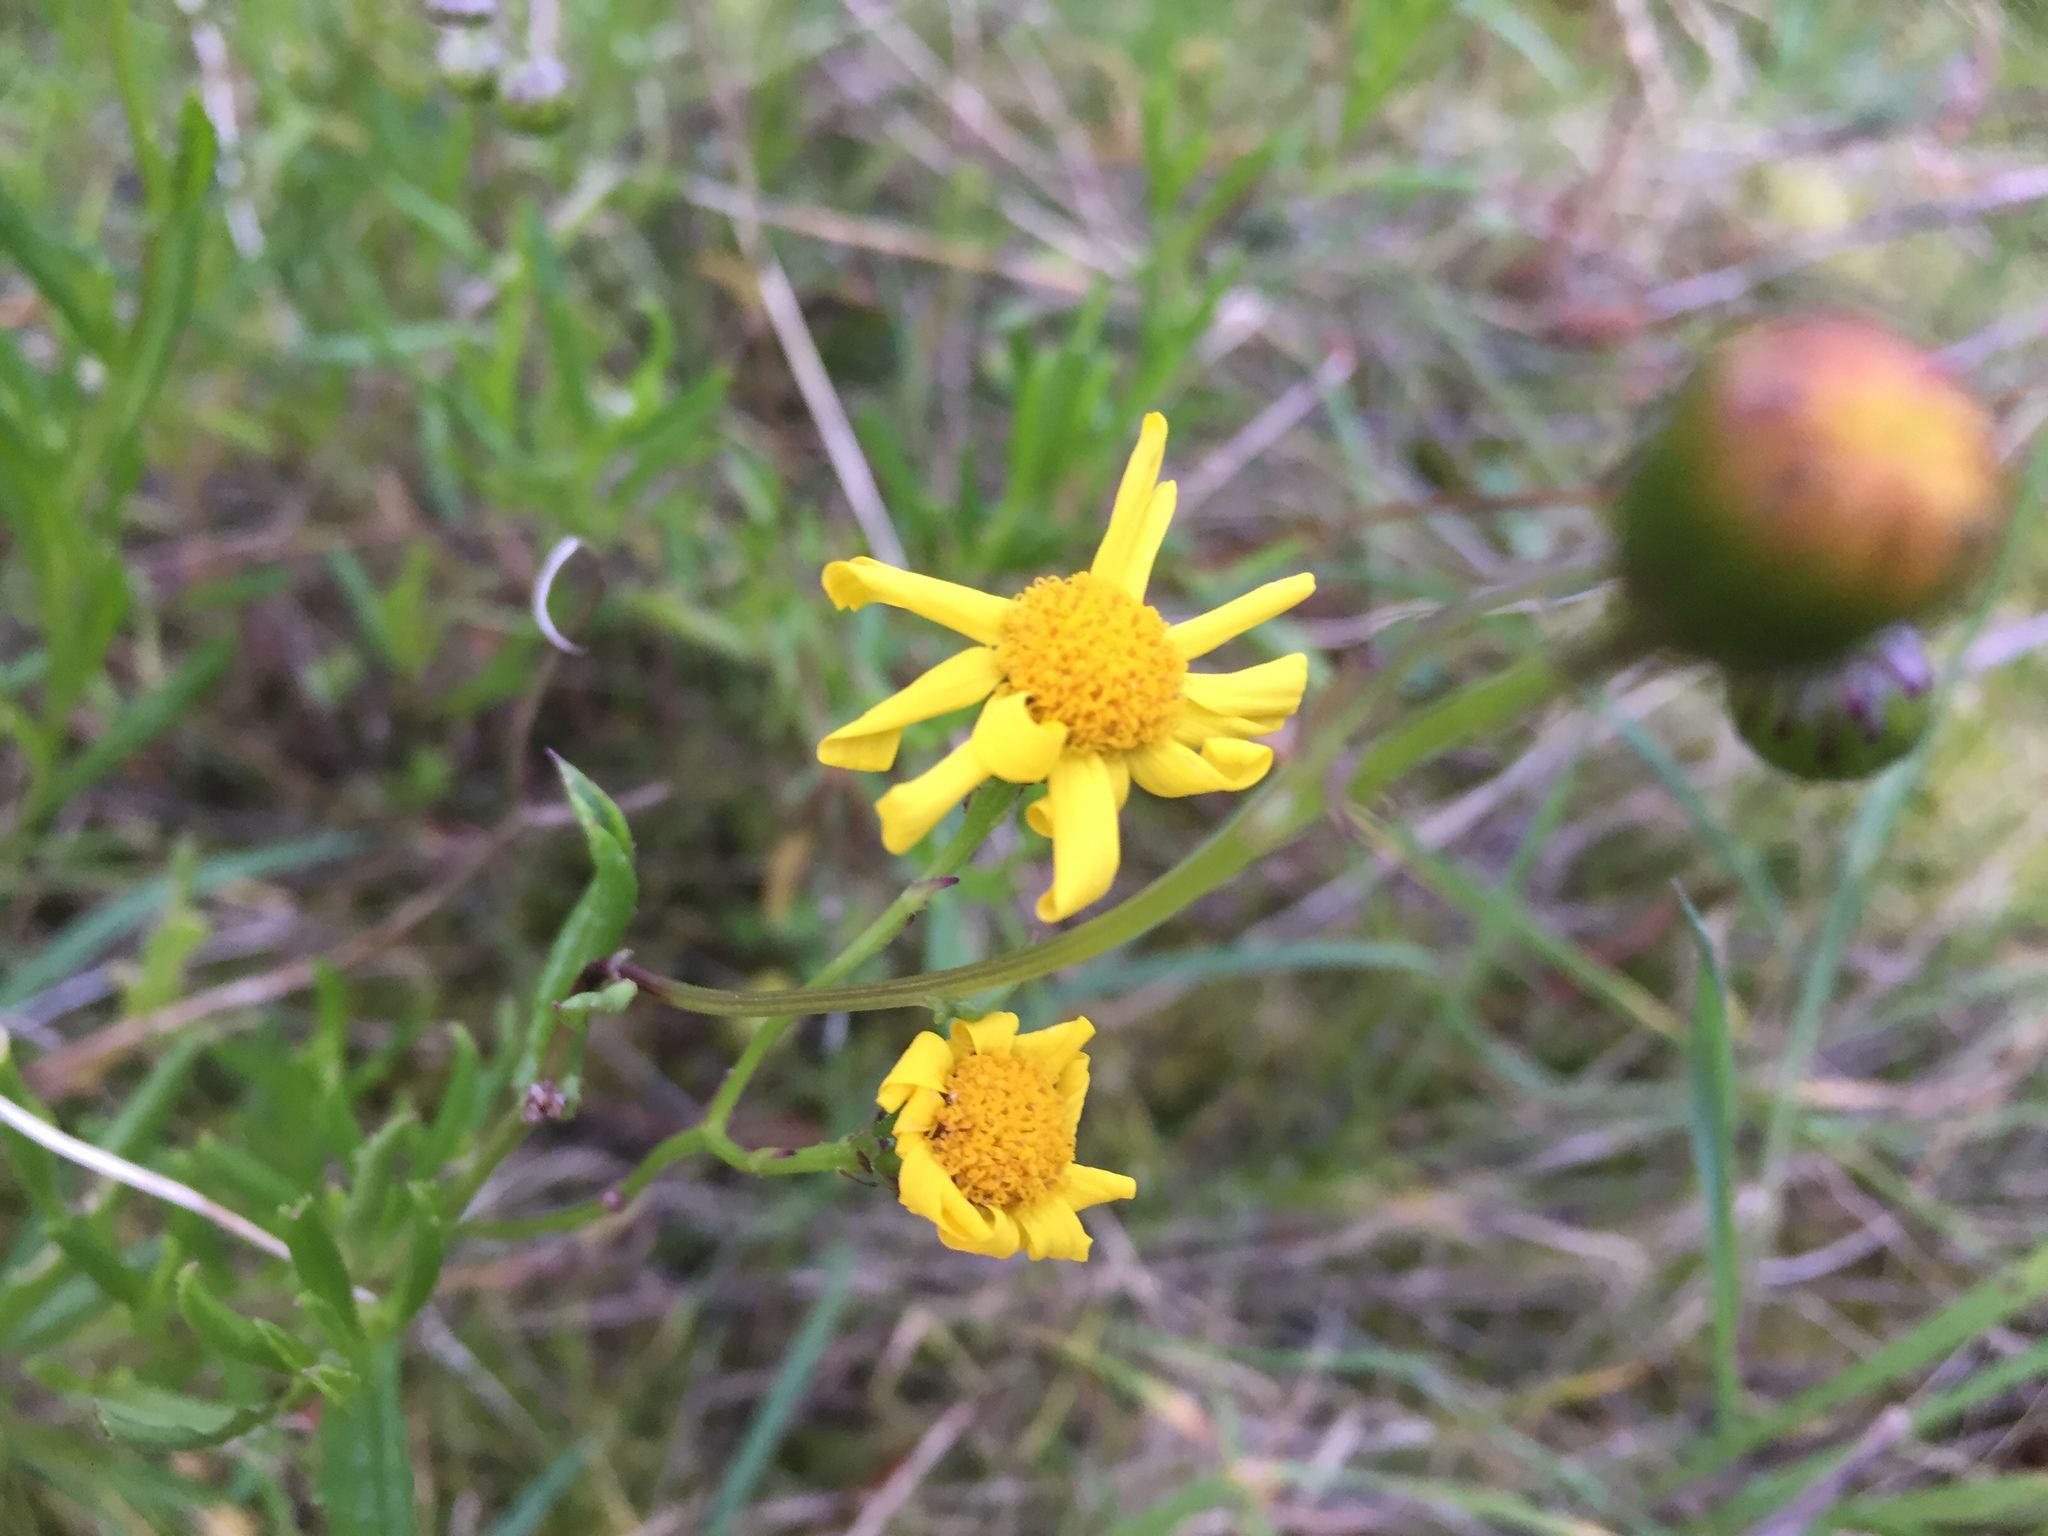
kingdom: Plantae
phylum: Tracheophyta
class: Magnoliopsida
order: Asterales
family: Asteraceae
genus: Senecio
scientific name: Senecio skirrhodon
